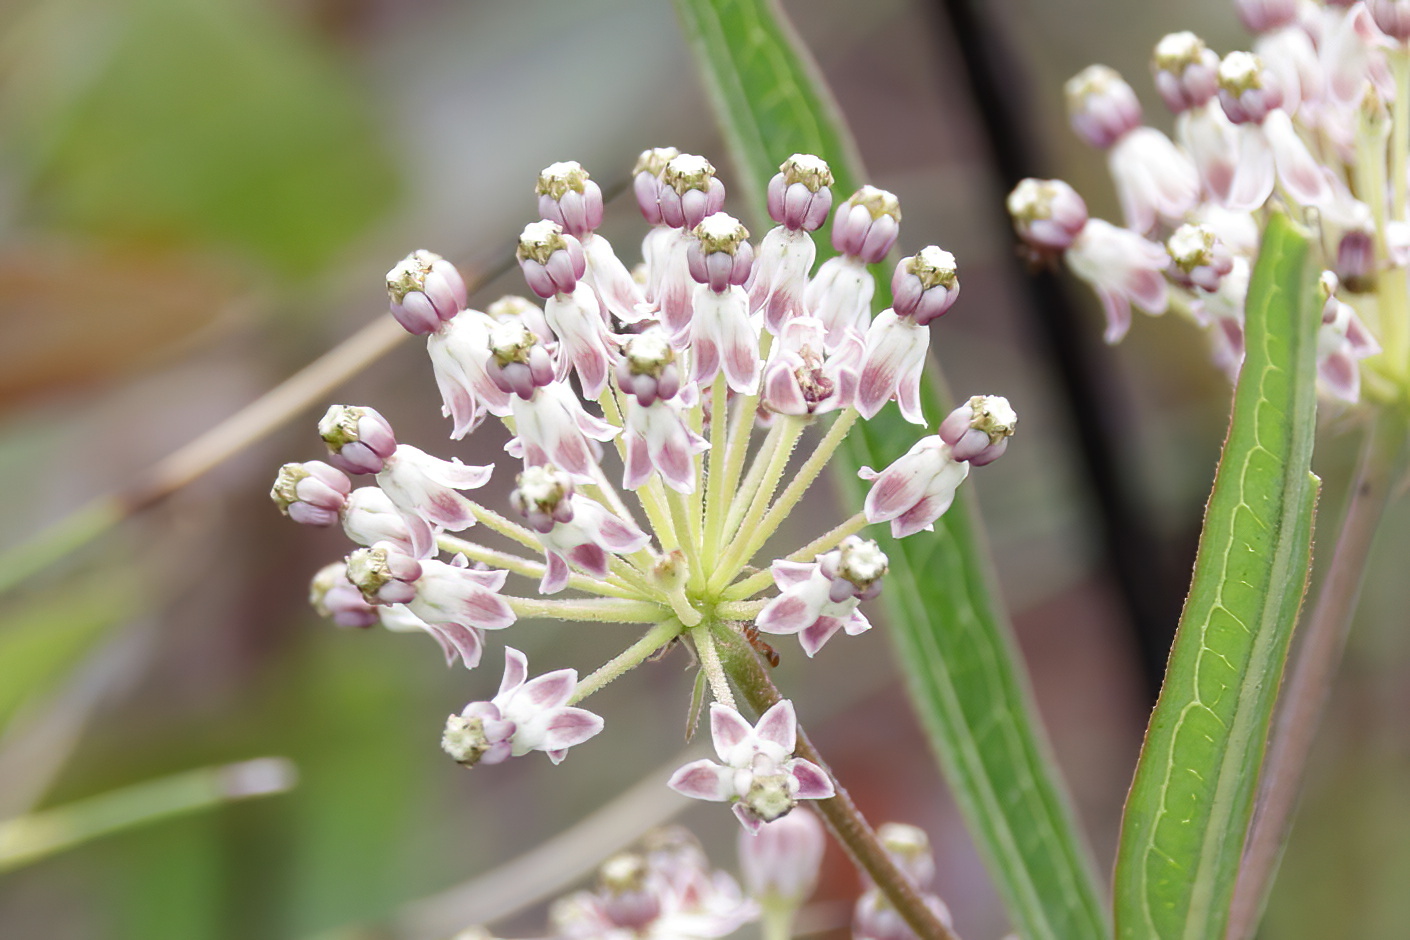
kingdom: Plantae
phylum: Tracheophyta
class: Magnoliopsida
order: Gentianales
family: Apocynaceae
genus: Asclepias
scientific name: Asclepias longifolia
